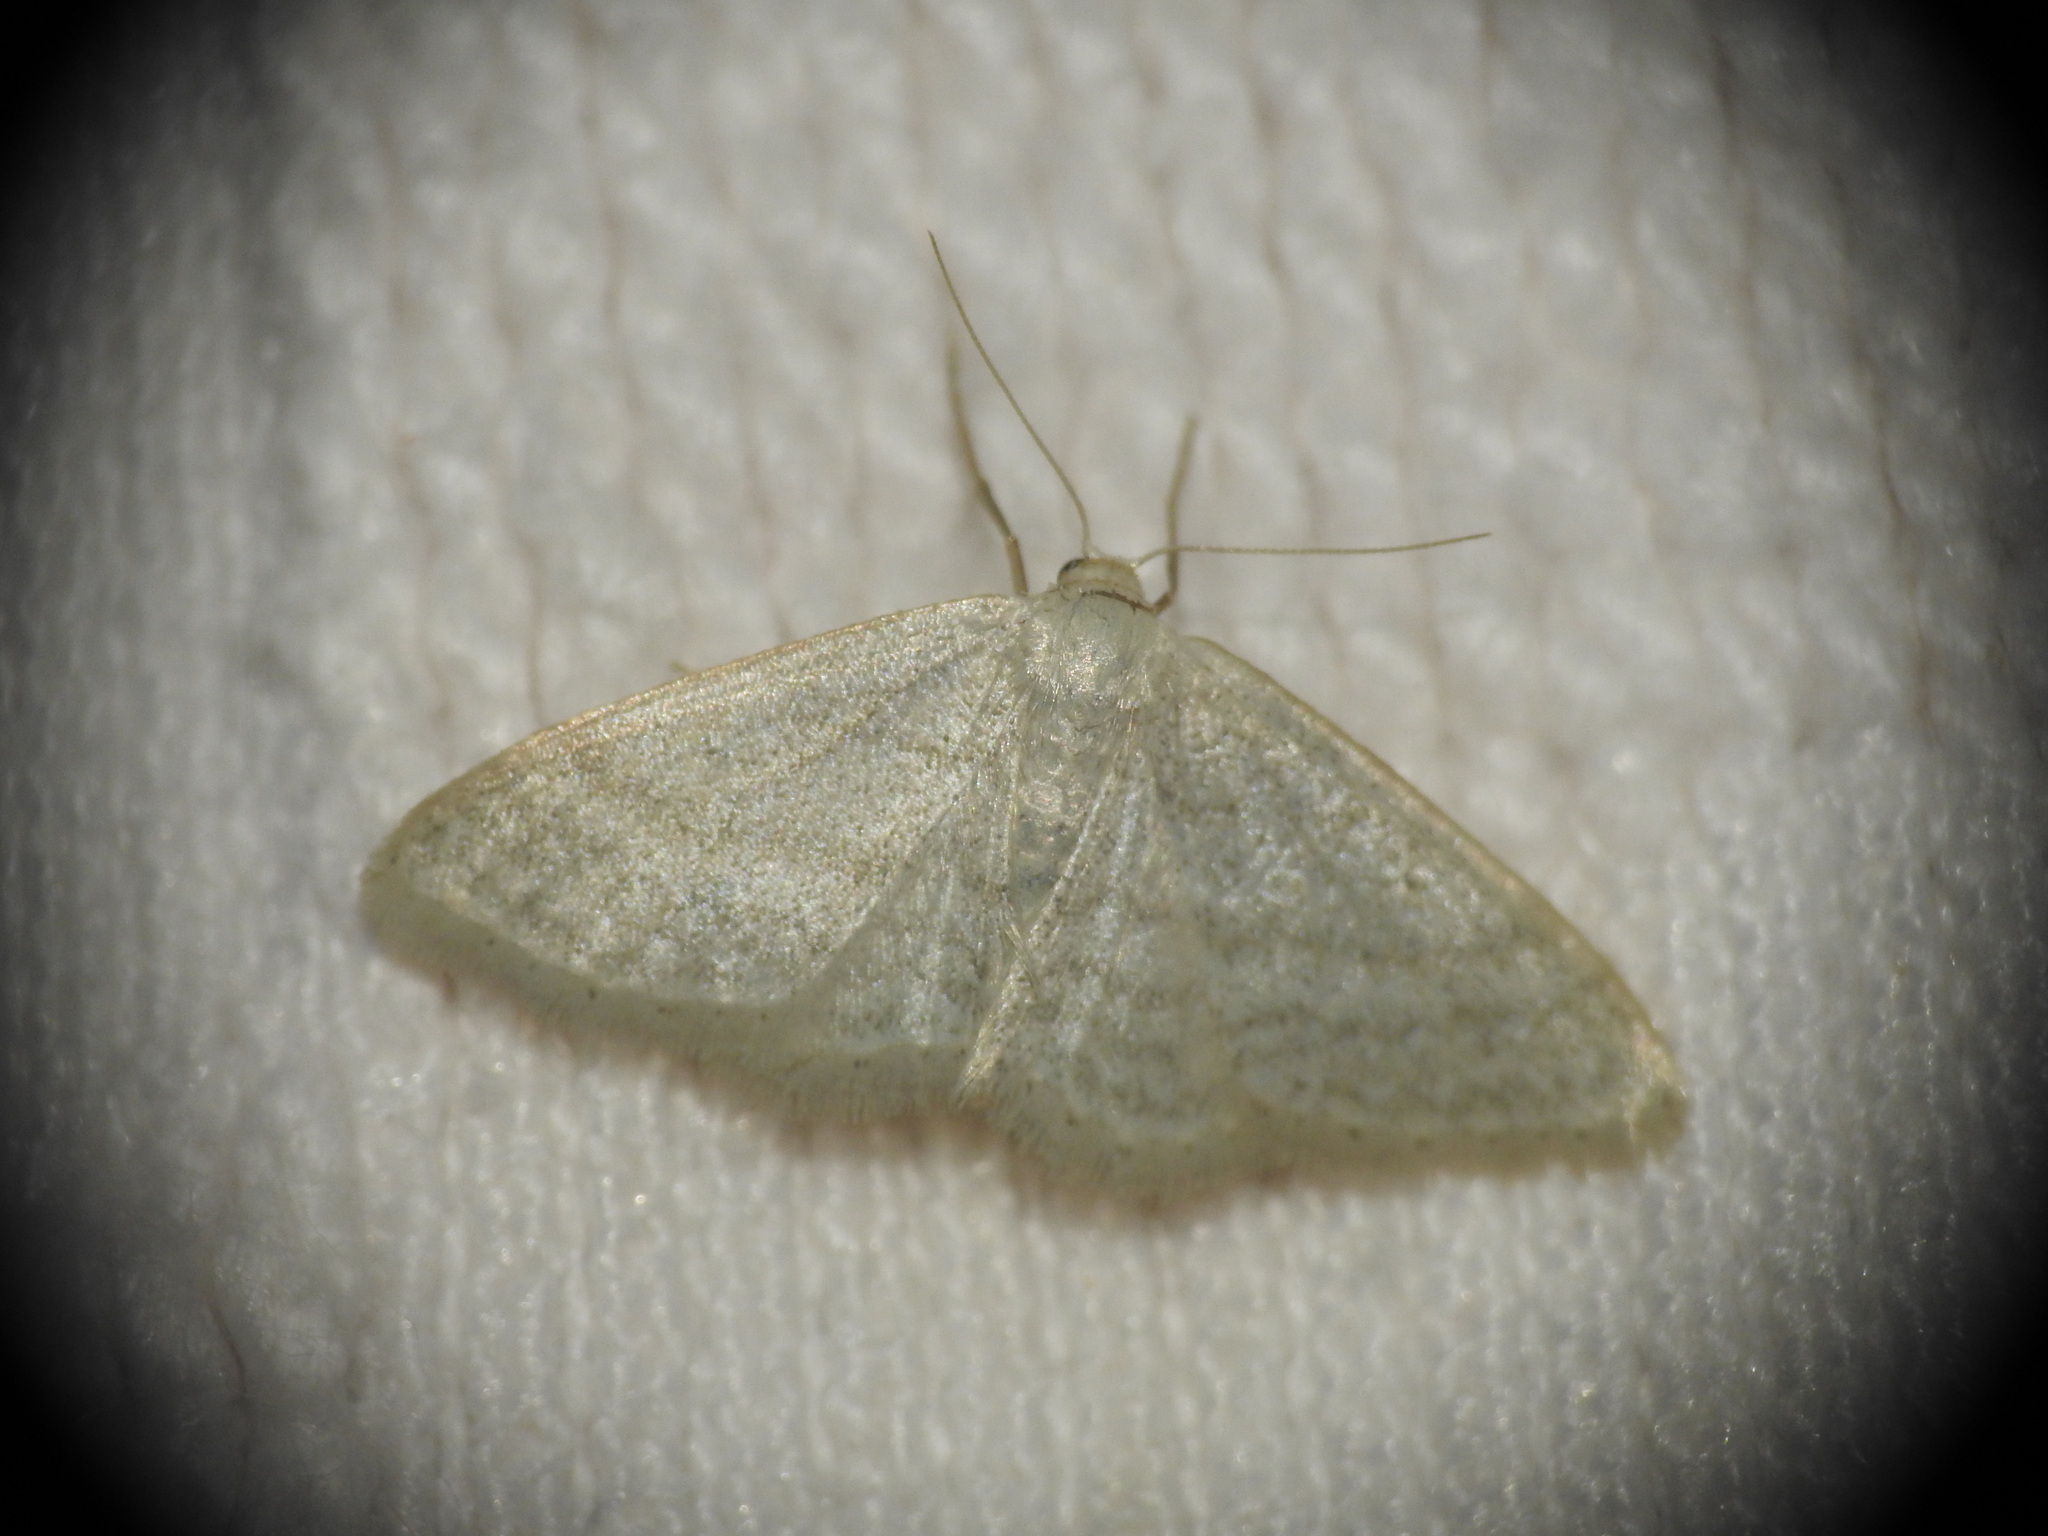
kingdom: Animalia
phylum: Arthropoda
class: Insecta
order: Lepidoptera
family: Geometridae
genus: Idaea
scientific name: Idaea subsericeata
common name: Satin wave
